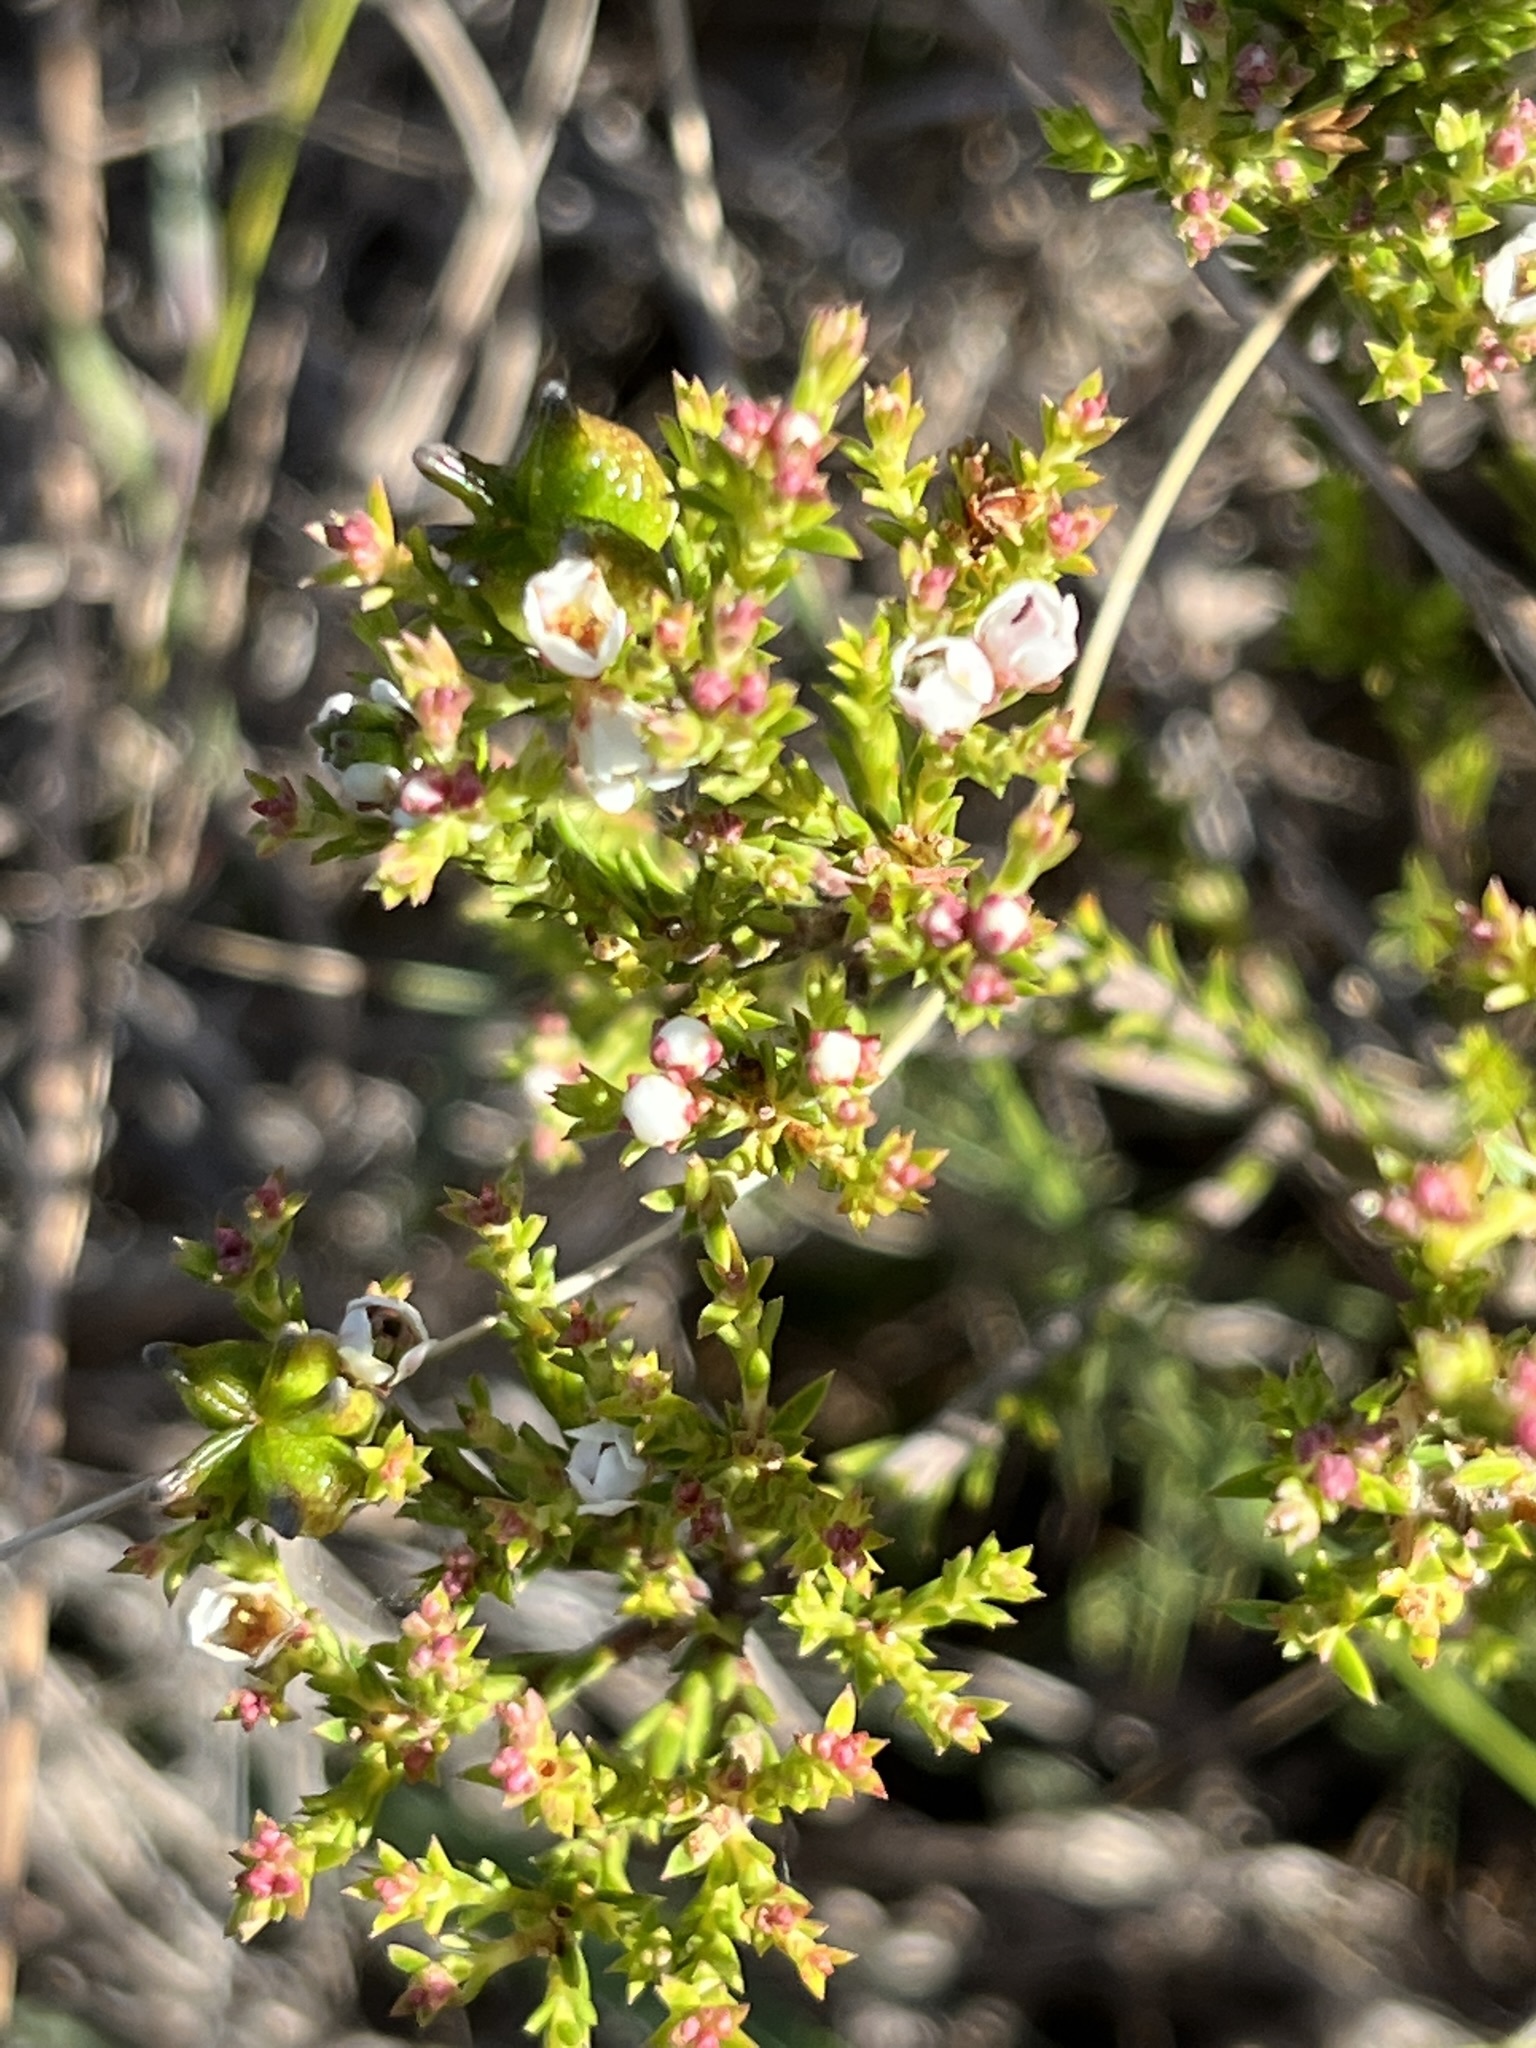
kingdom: Plantae
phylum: Tracheophyta
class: Magnoliopsida
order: Sapindales
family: Rutaceae
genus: Diosma
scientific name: Diosma passerinoides
